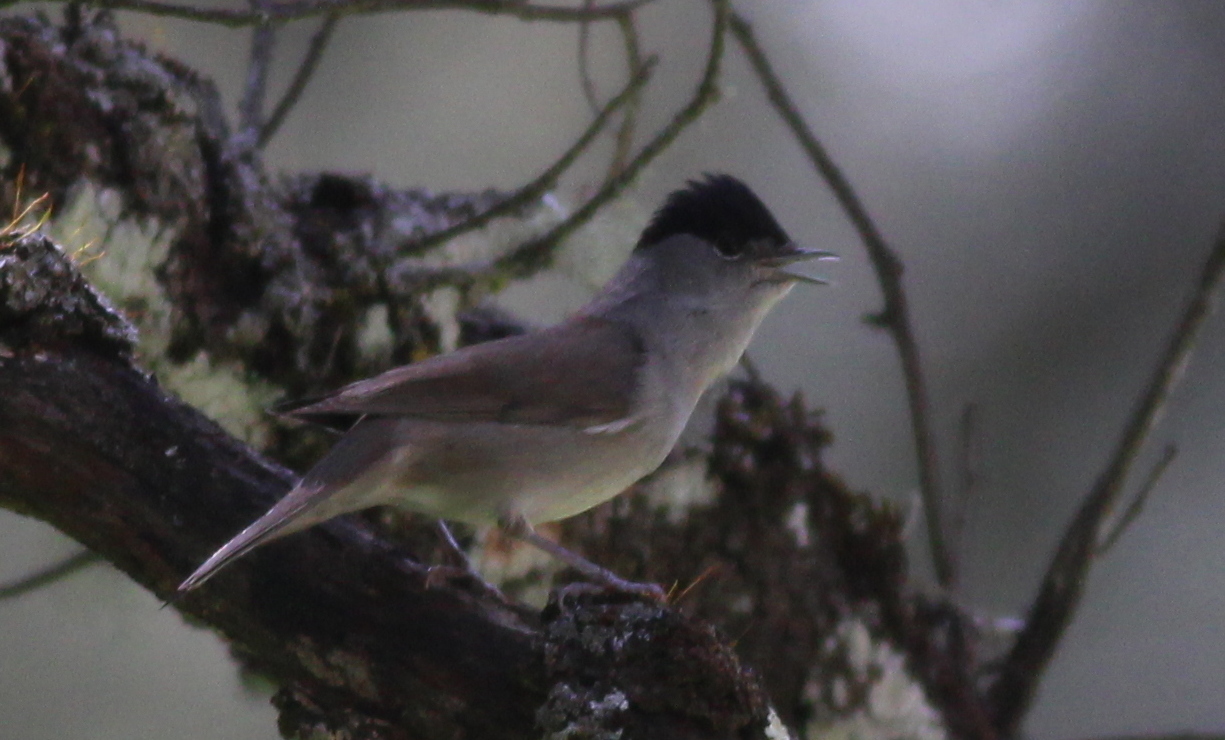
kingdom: Animalia
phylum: Chordata
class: Aves
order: Passeriformes
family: Sylviidae
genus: Sylvia
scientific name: Sylvia atricapilla
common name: Eurasian blackcap
